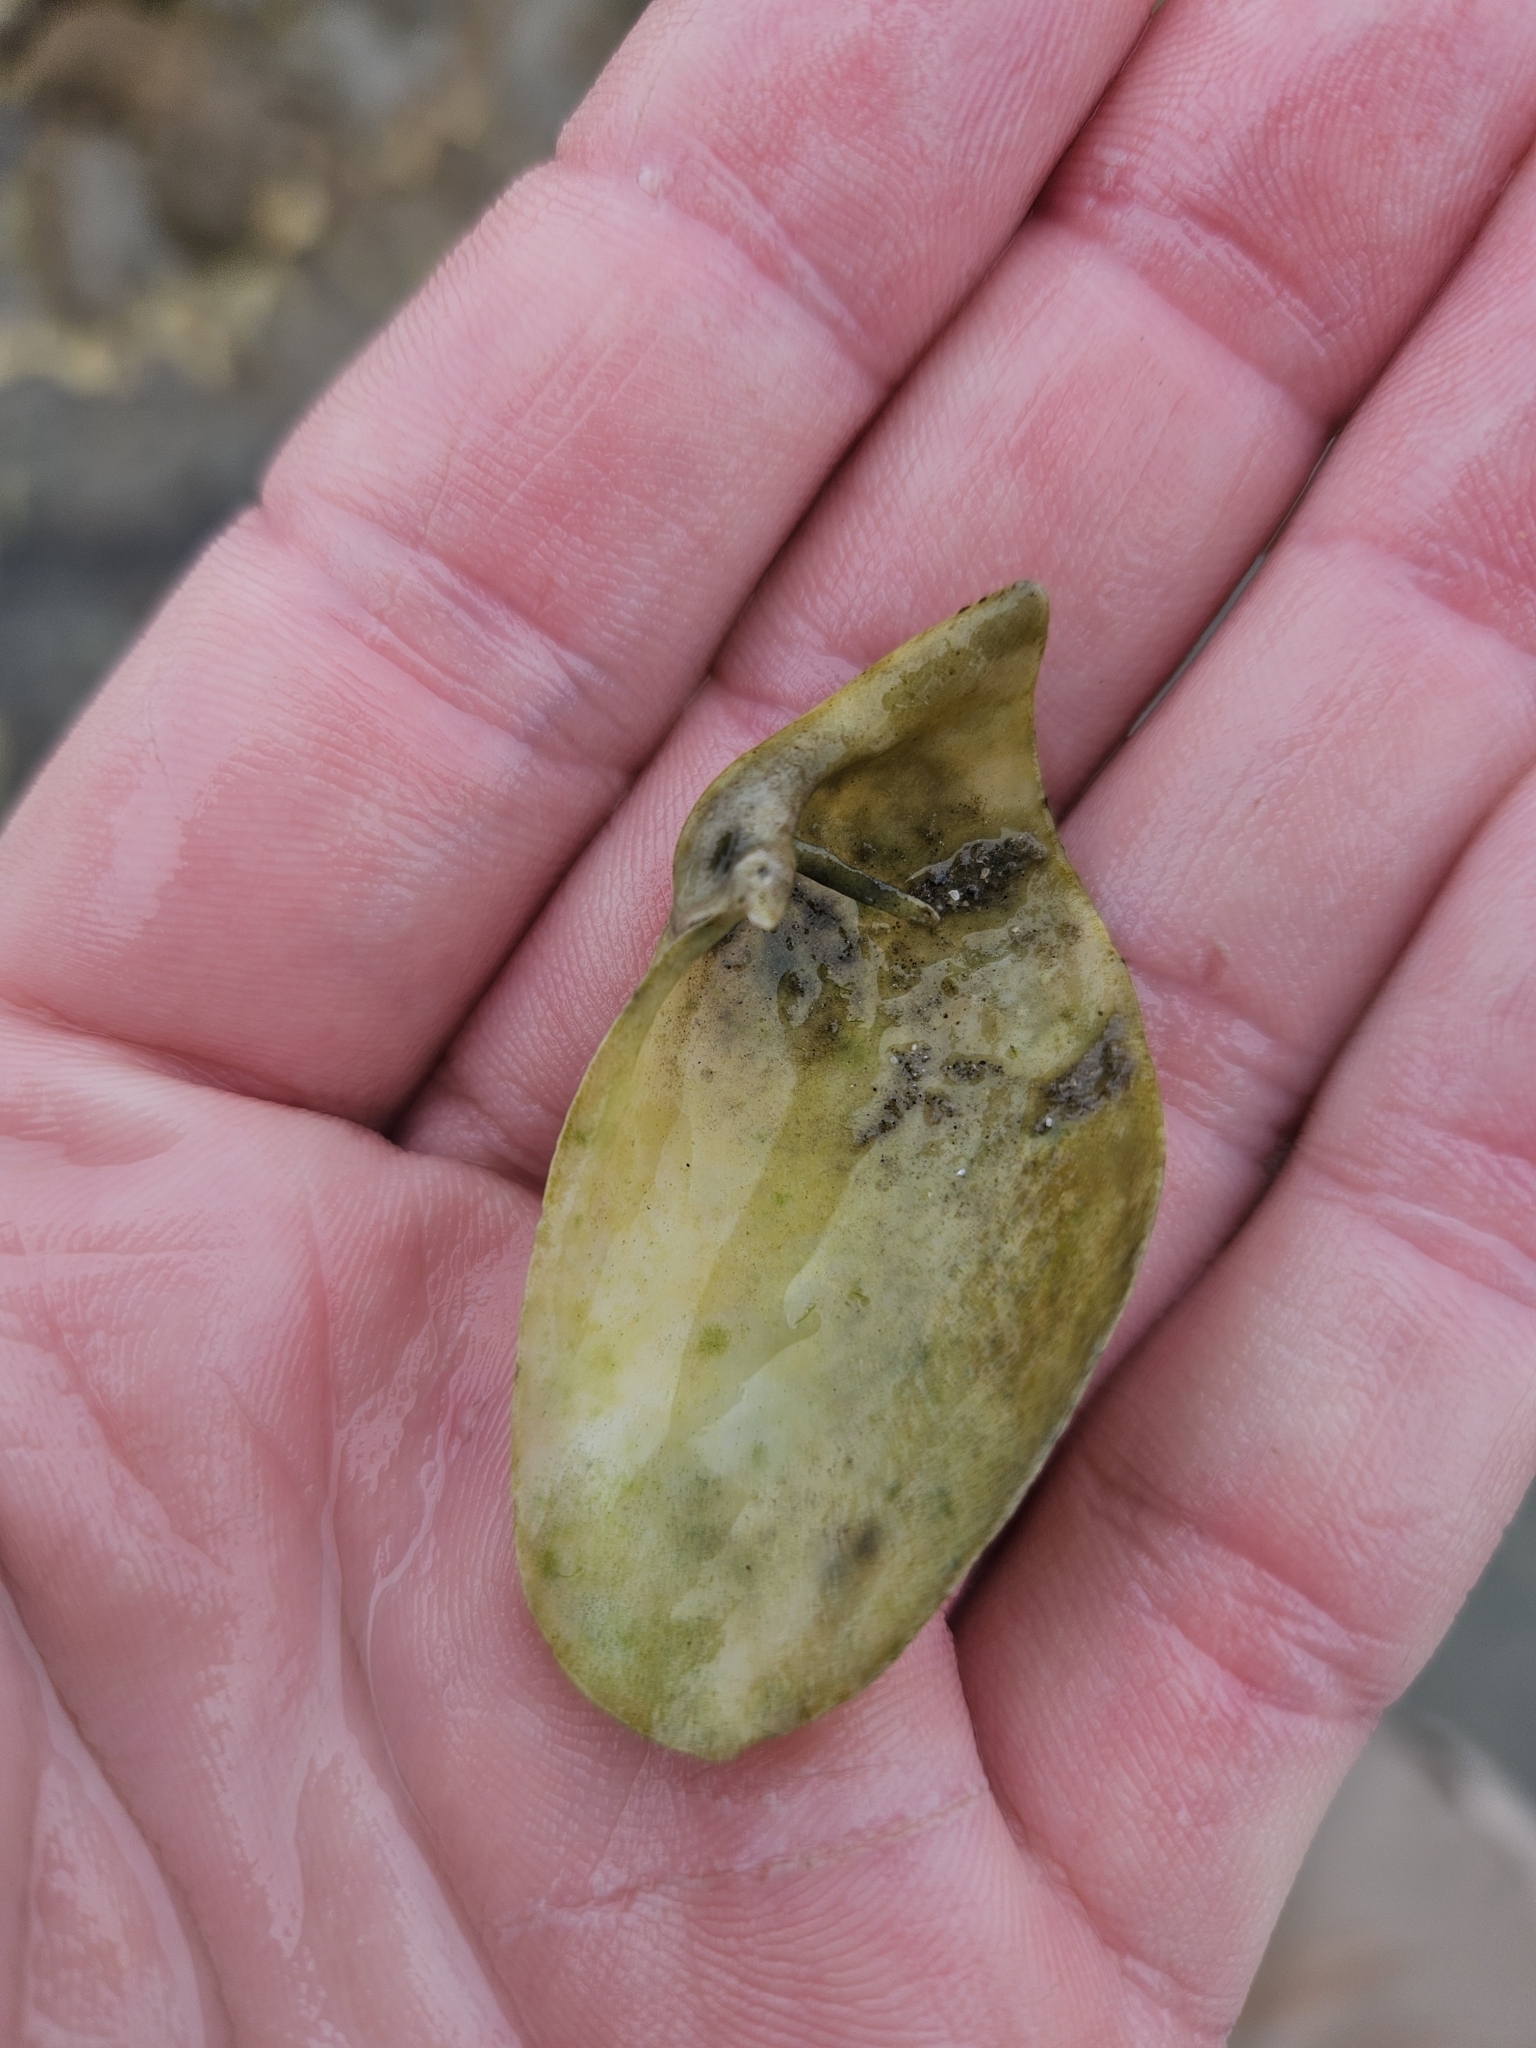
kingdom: Animalia
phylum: Mollusca
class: Bivalvia
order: Myida
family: Pholadidae
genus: Barnea
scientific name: Barnea similis
